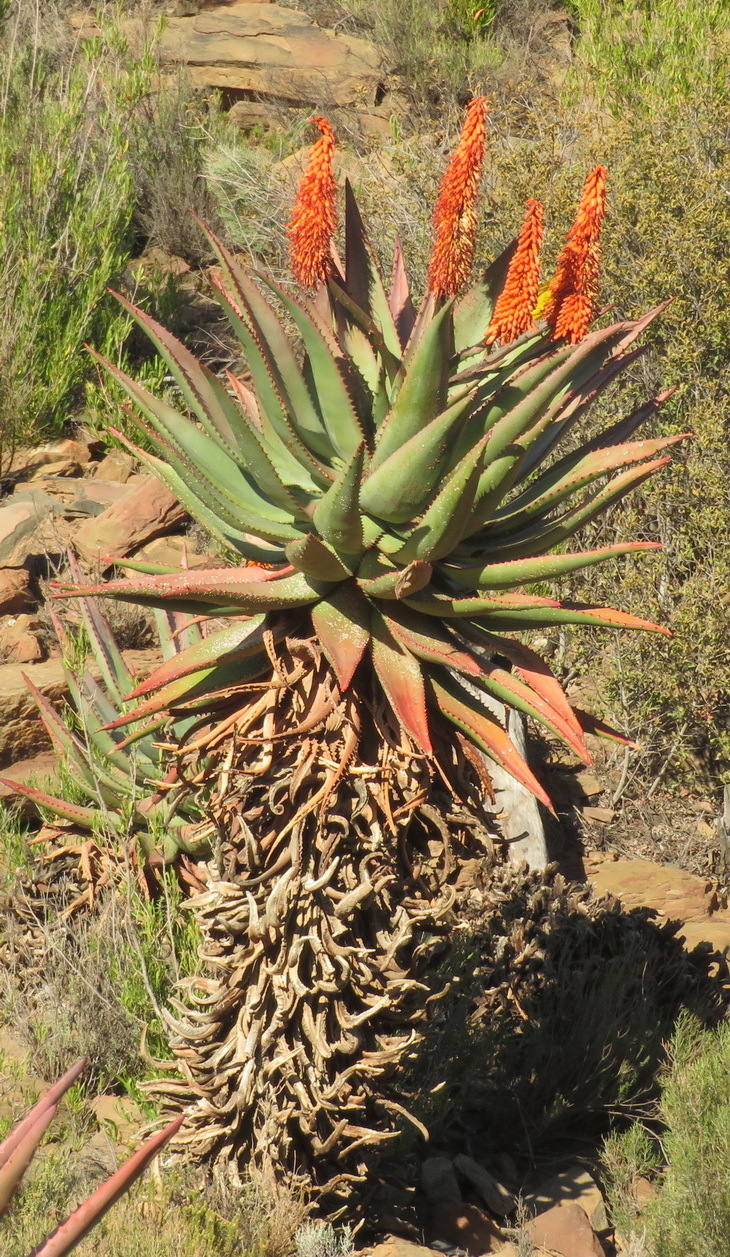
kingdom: Plantae
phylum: Tracheophyta
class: Liliopsida
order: Asparagales
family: Asphodelaceae
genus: Aloe
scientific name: Aloe ferox
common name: Bitter aloe
